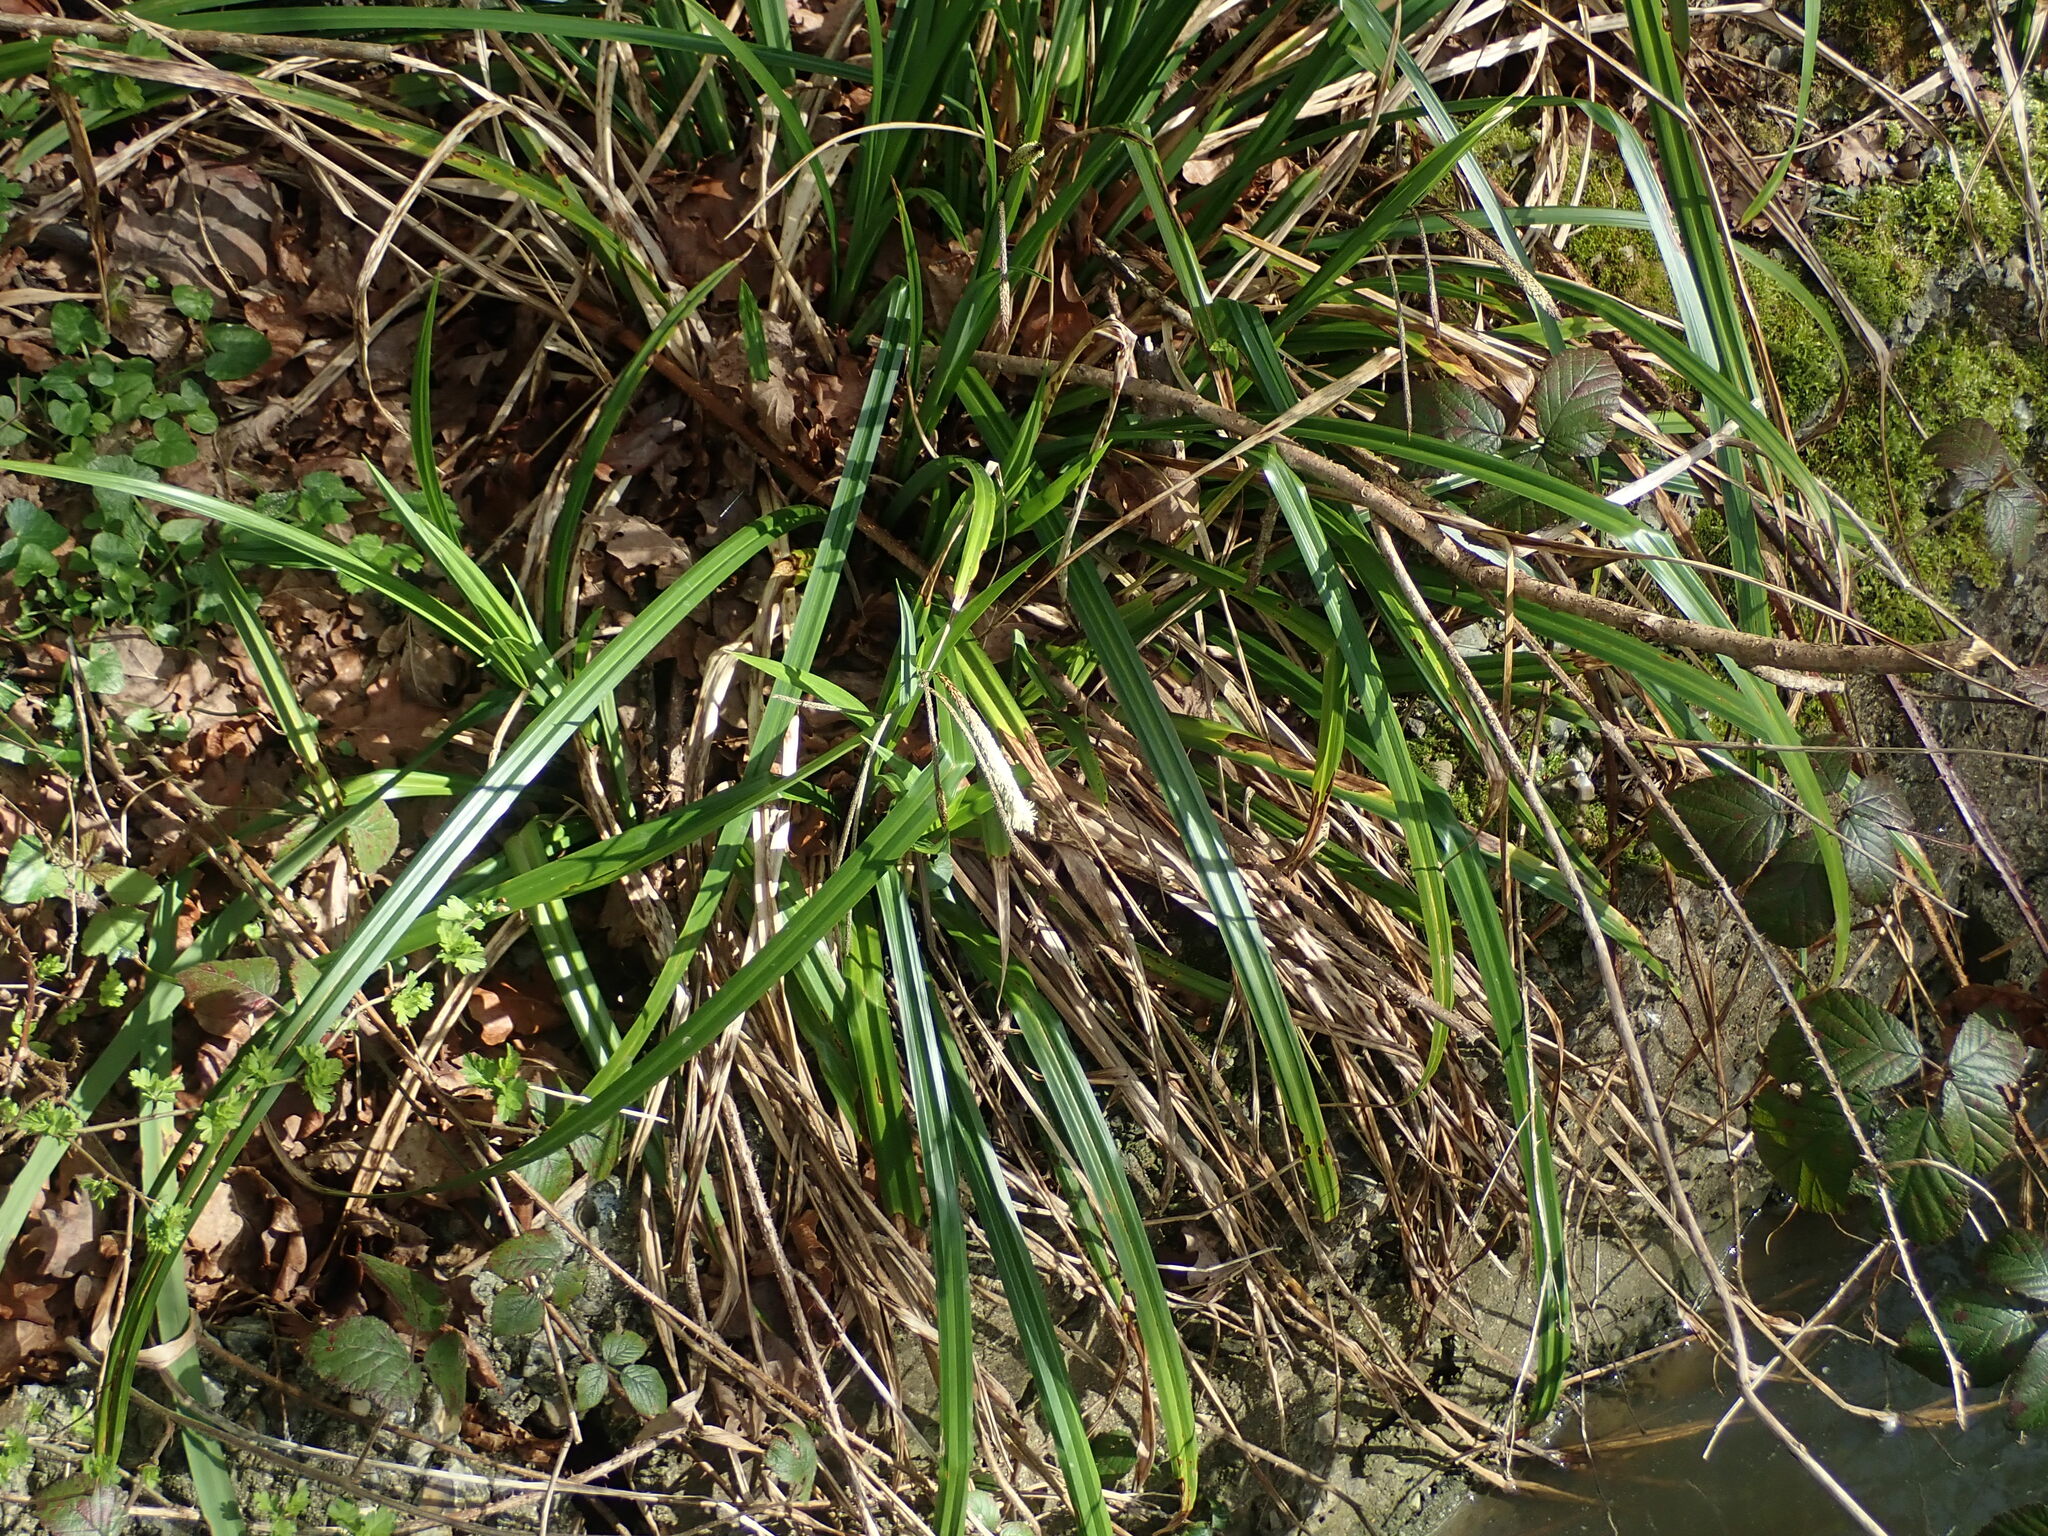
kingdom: Plantae
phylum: Tracheophyta
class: Liliopsida
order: Poales
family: Cyperaceae
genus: Carex
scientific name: Carex pendula
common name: Pendulous sedge
